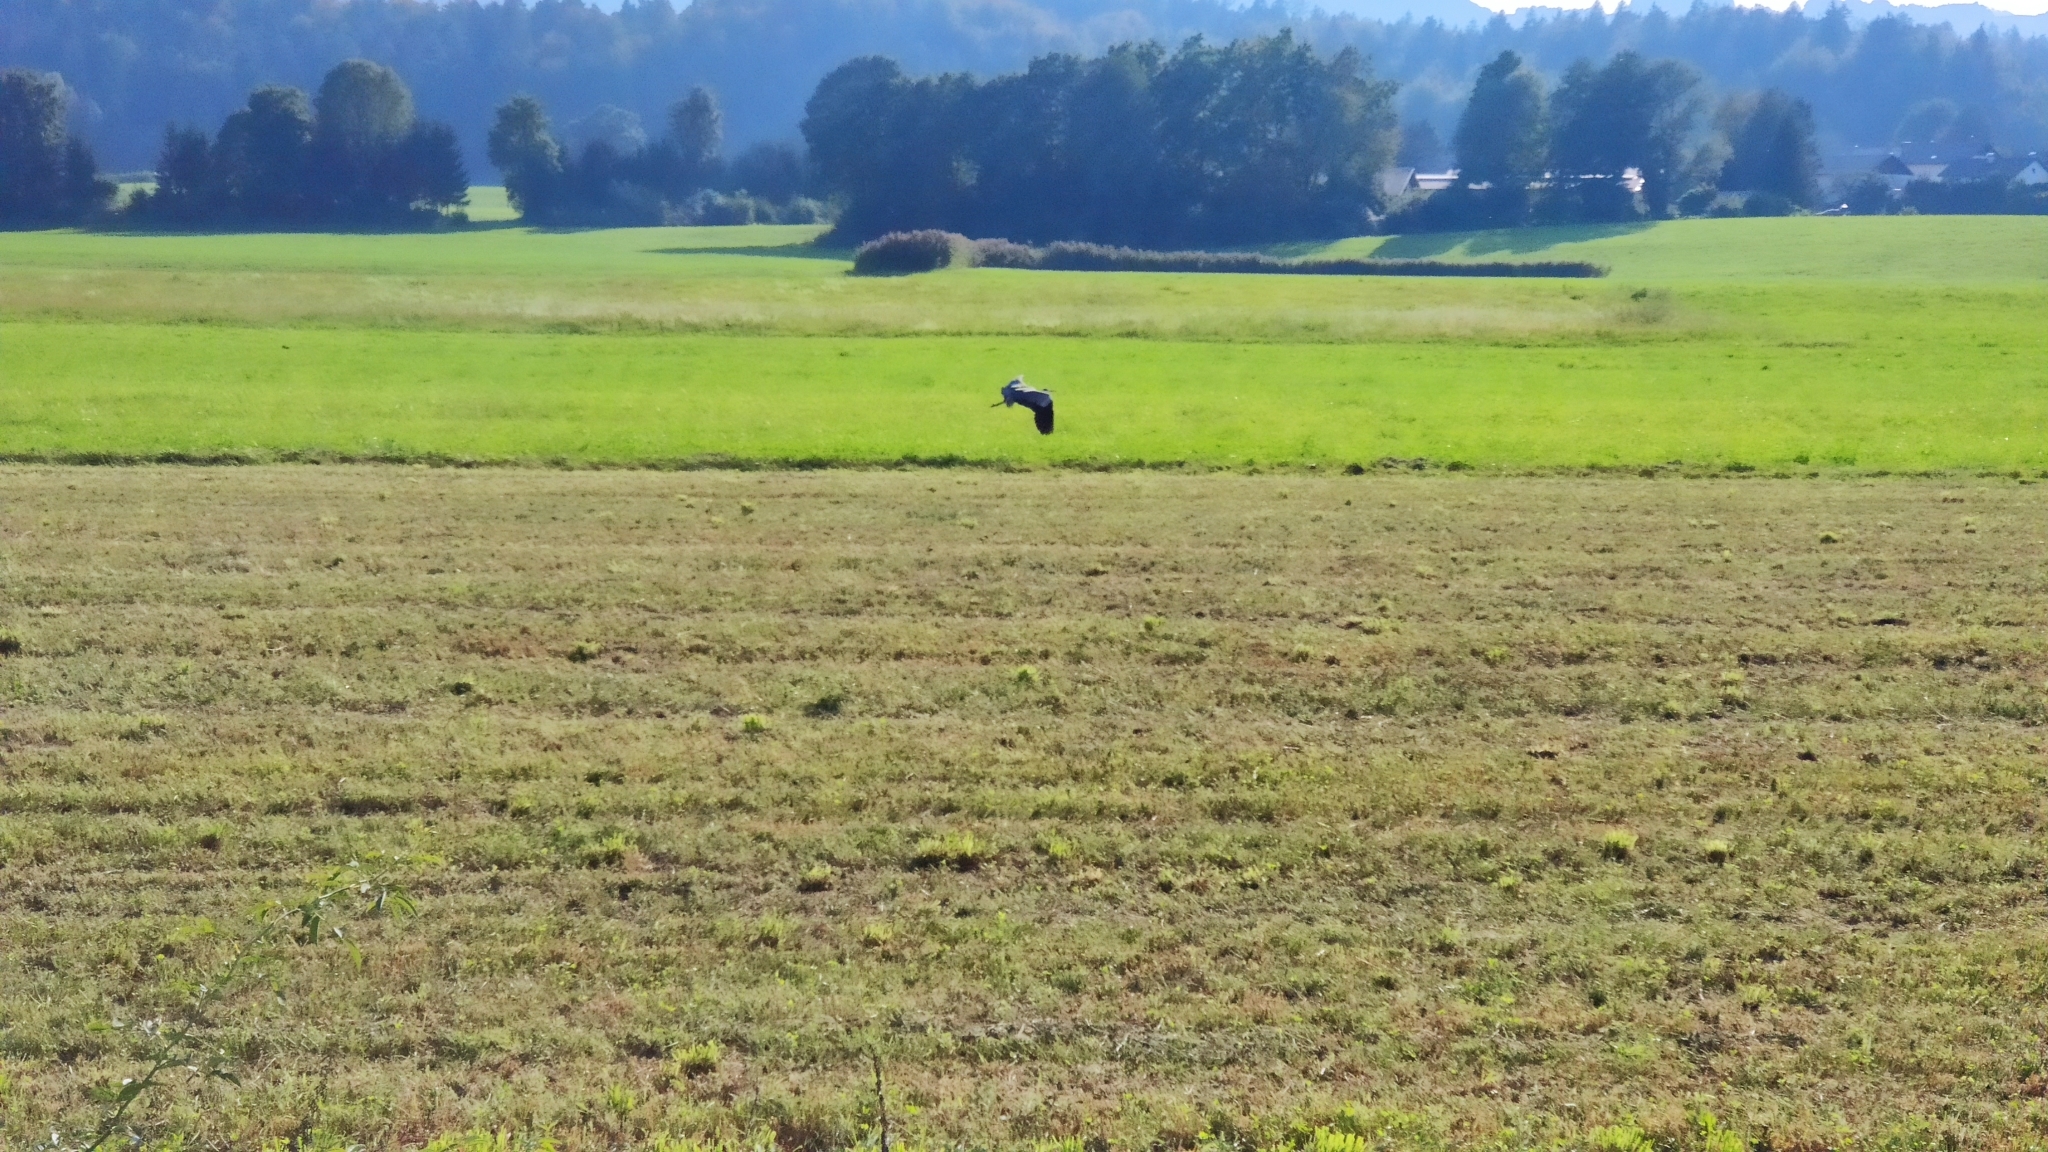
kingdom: Animalia
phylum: Chordata
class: Aves
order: Pelecaniformes
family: Ardeidae
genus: Ardea
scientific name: Ardea cinerea
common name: Grey heron
